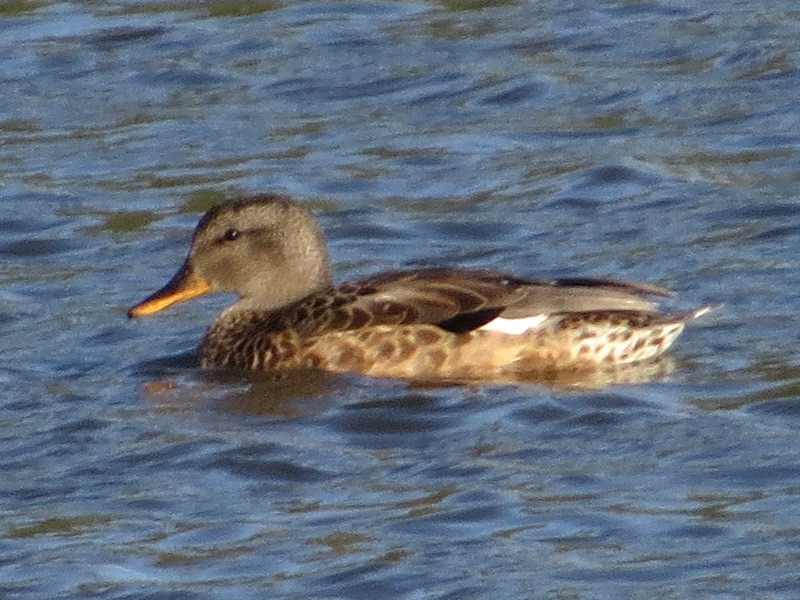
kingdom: Animalia
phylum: Chordata
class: Aves
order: Anseriformes
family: Anatidae
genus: Mareca
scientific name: Mareca strepera
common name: Gadwall
